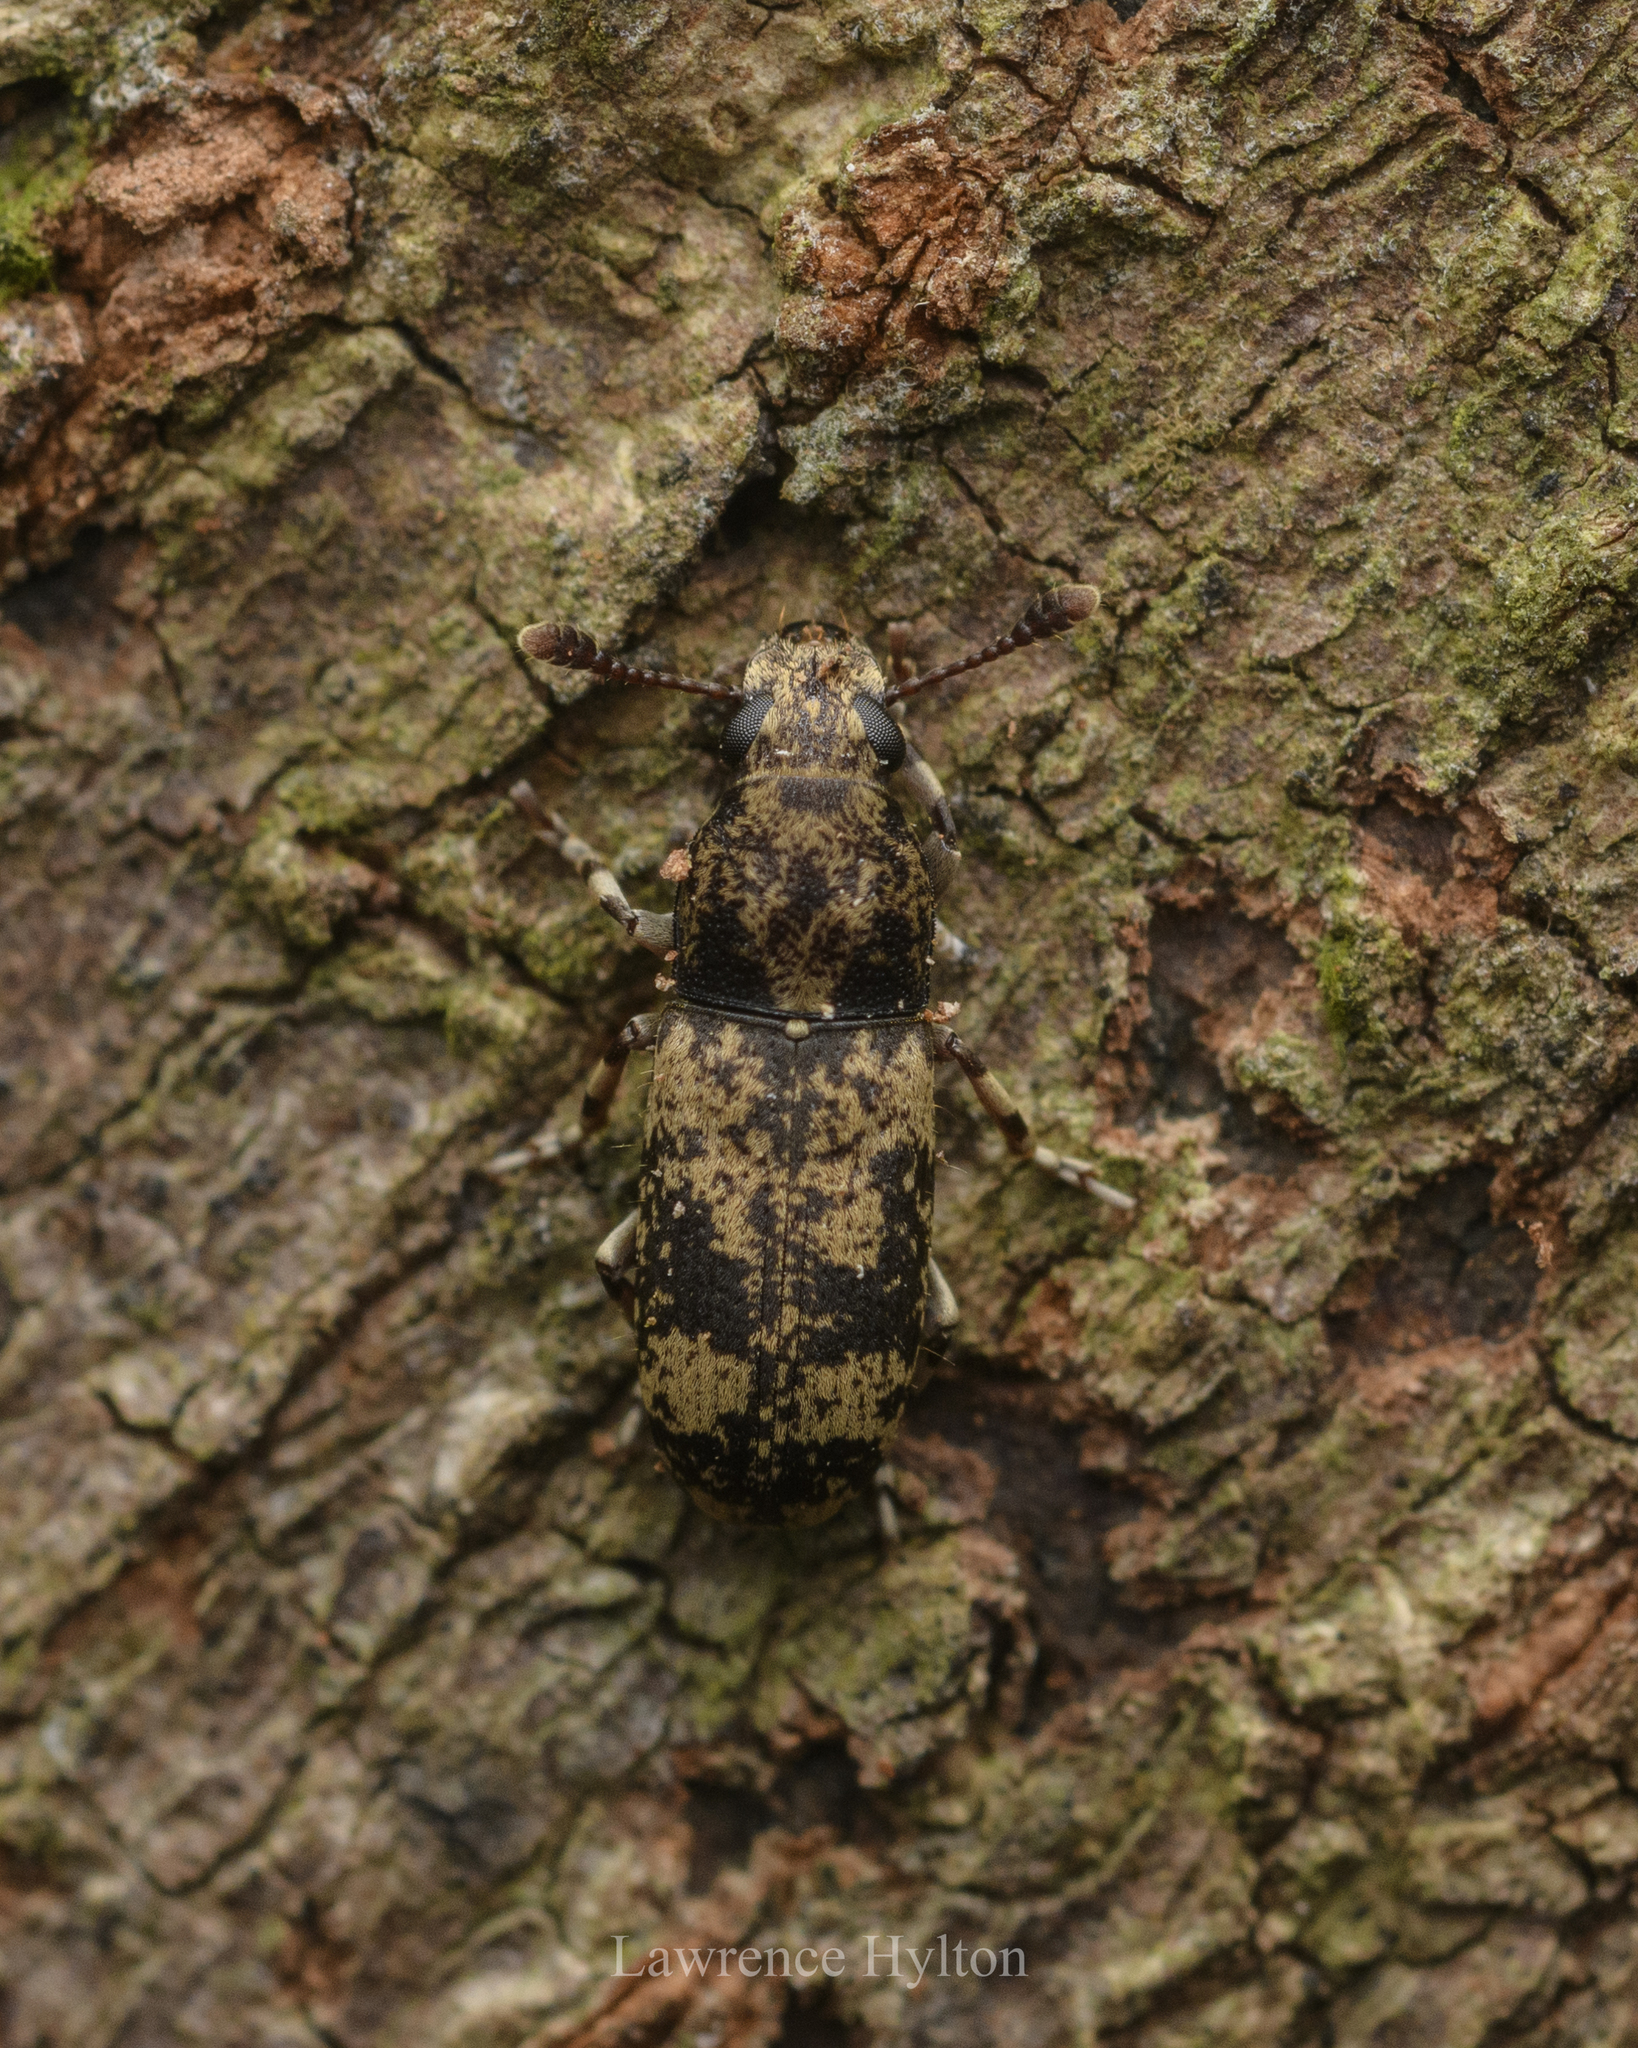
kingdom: Animalia
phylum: Arthropoda
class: Insecta
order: Coleoptera
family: Anthribidae
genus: Basitropis
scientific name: Basitropis nitidicutis
